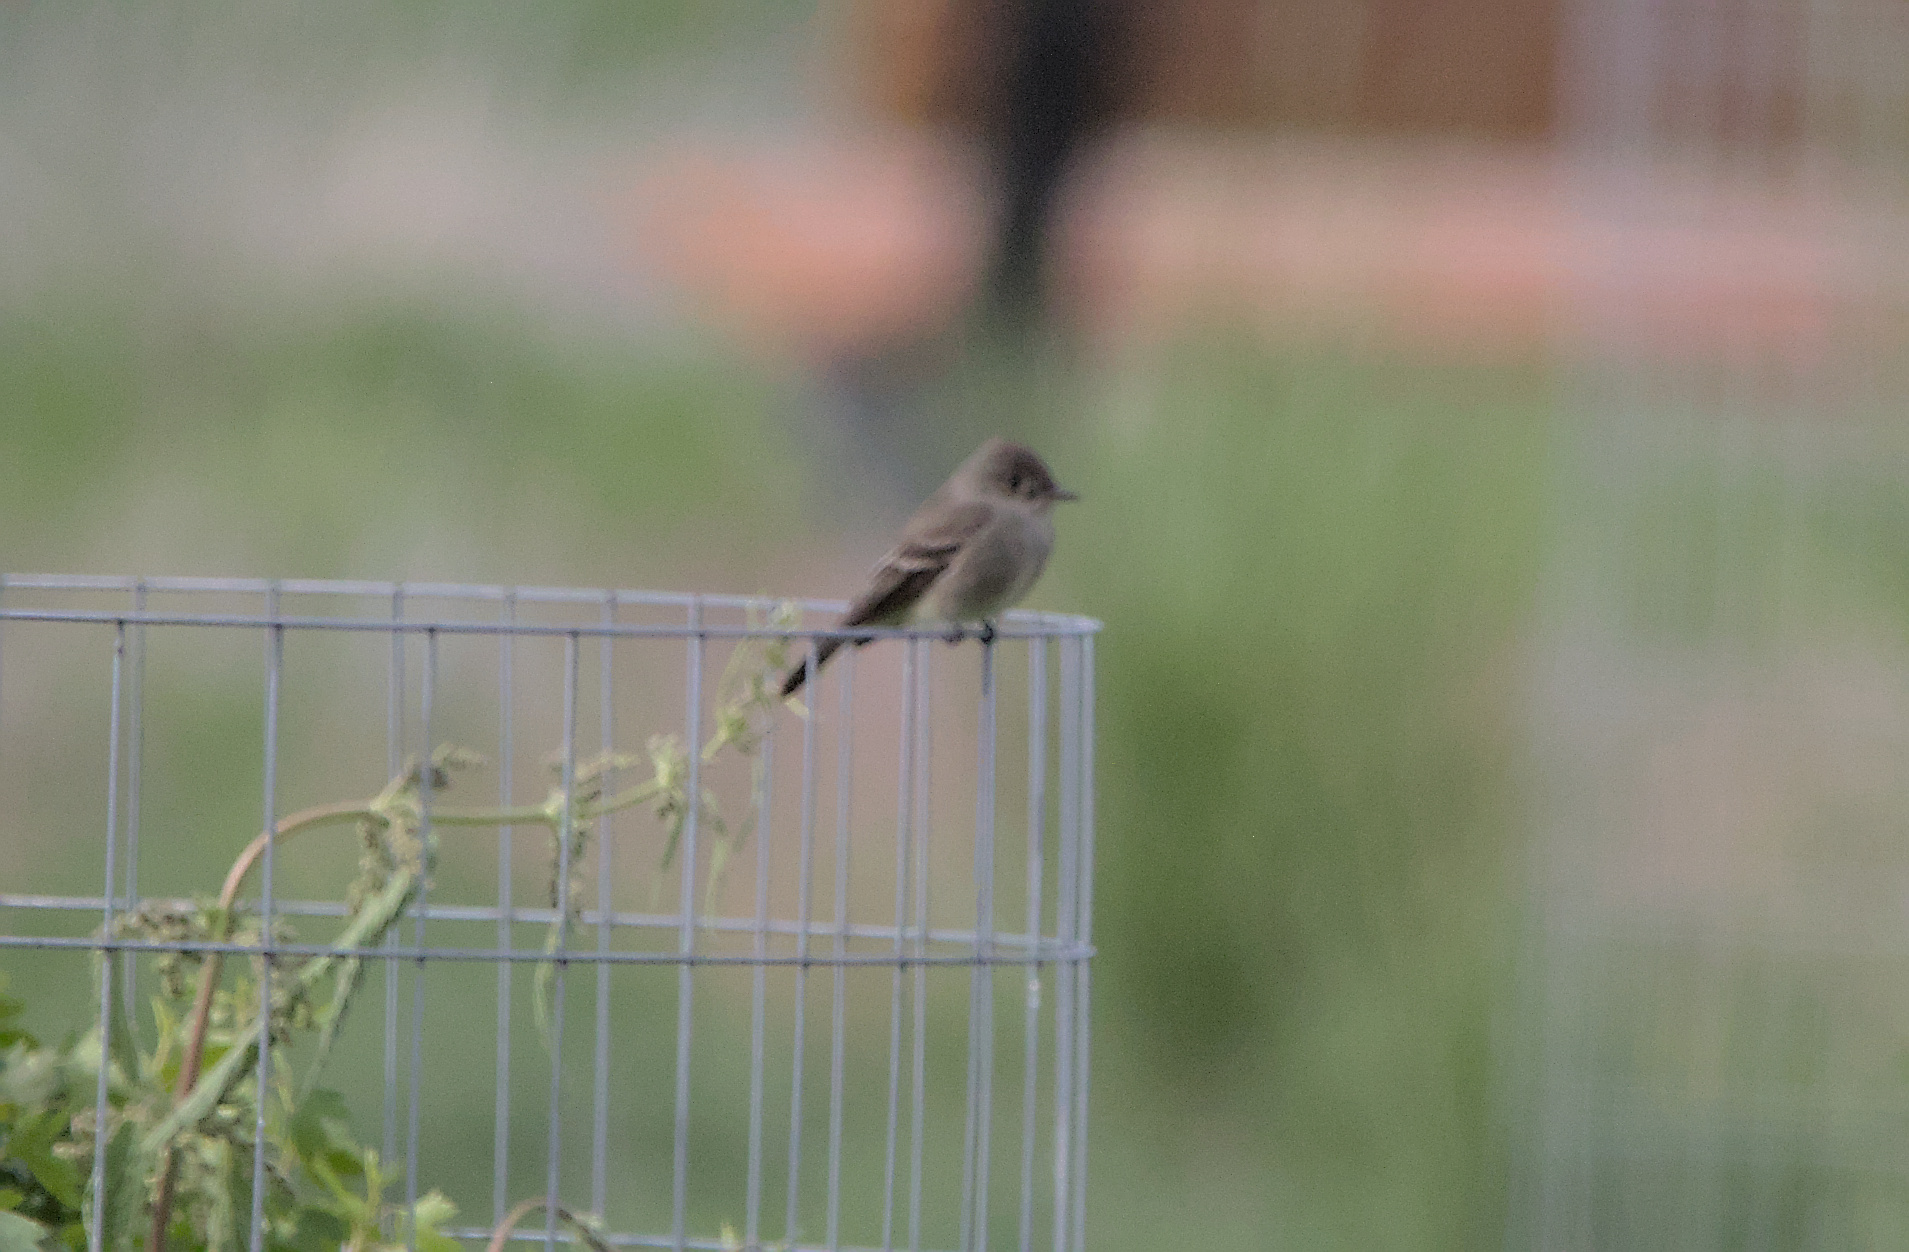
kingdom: Animalia
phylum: Chordata
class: Aves
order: Passeriformes
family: Tyrannidae
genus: Contopus
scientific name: Contopus sordidulus
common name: Western wood-pewee
